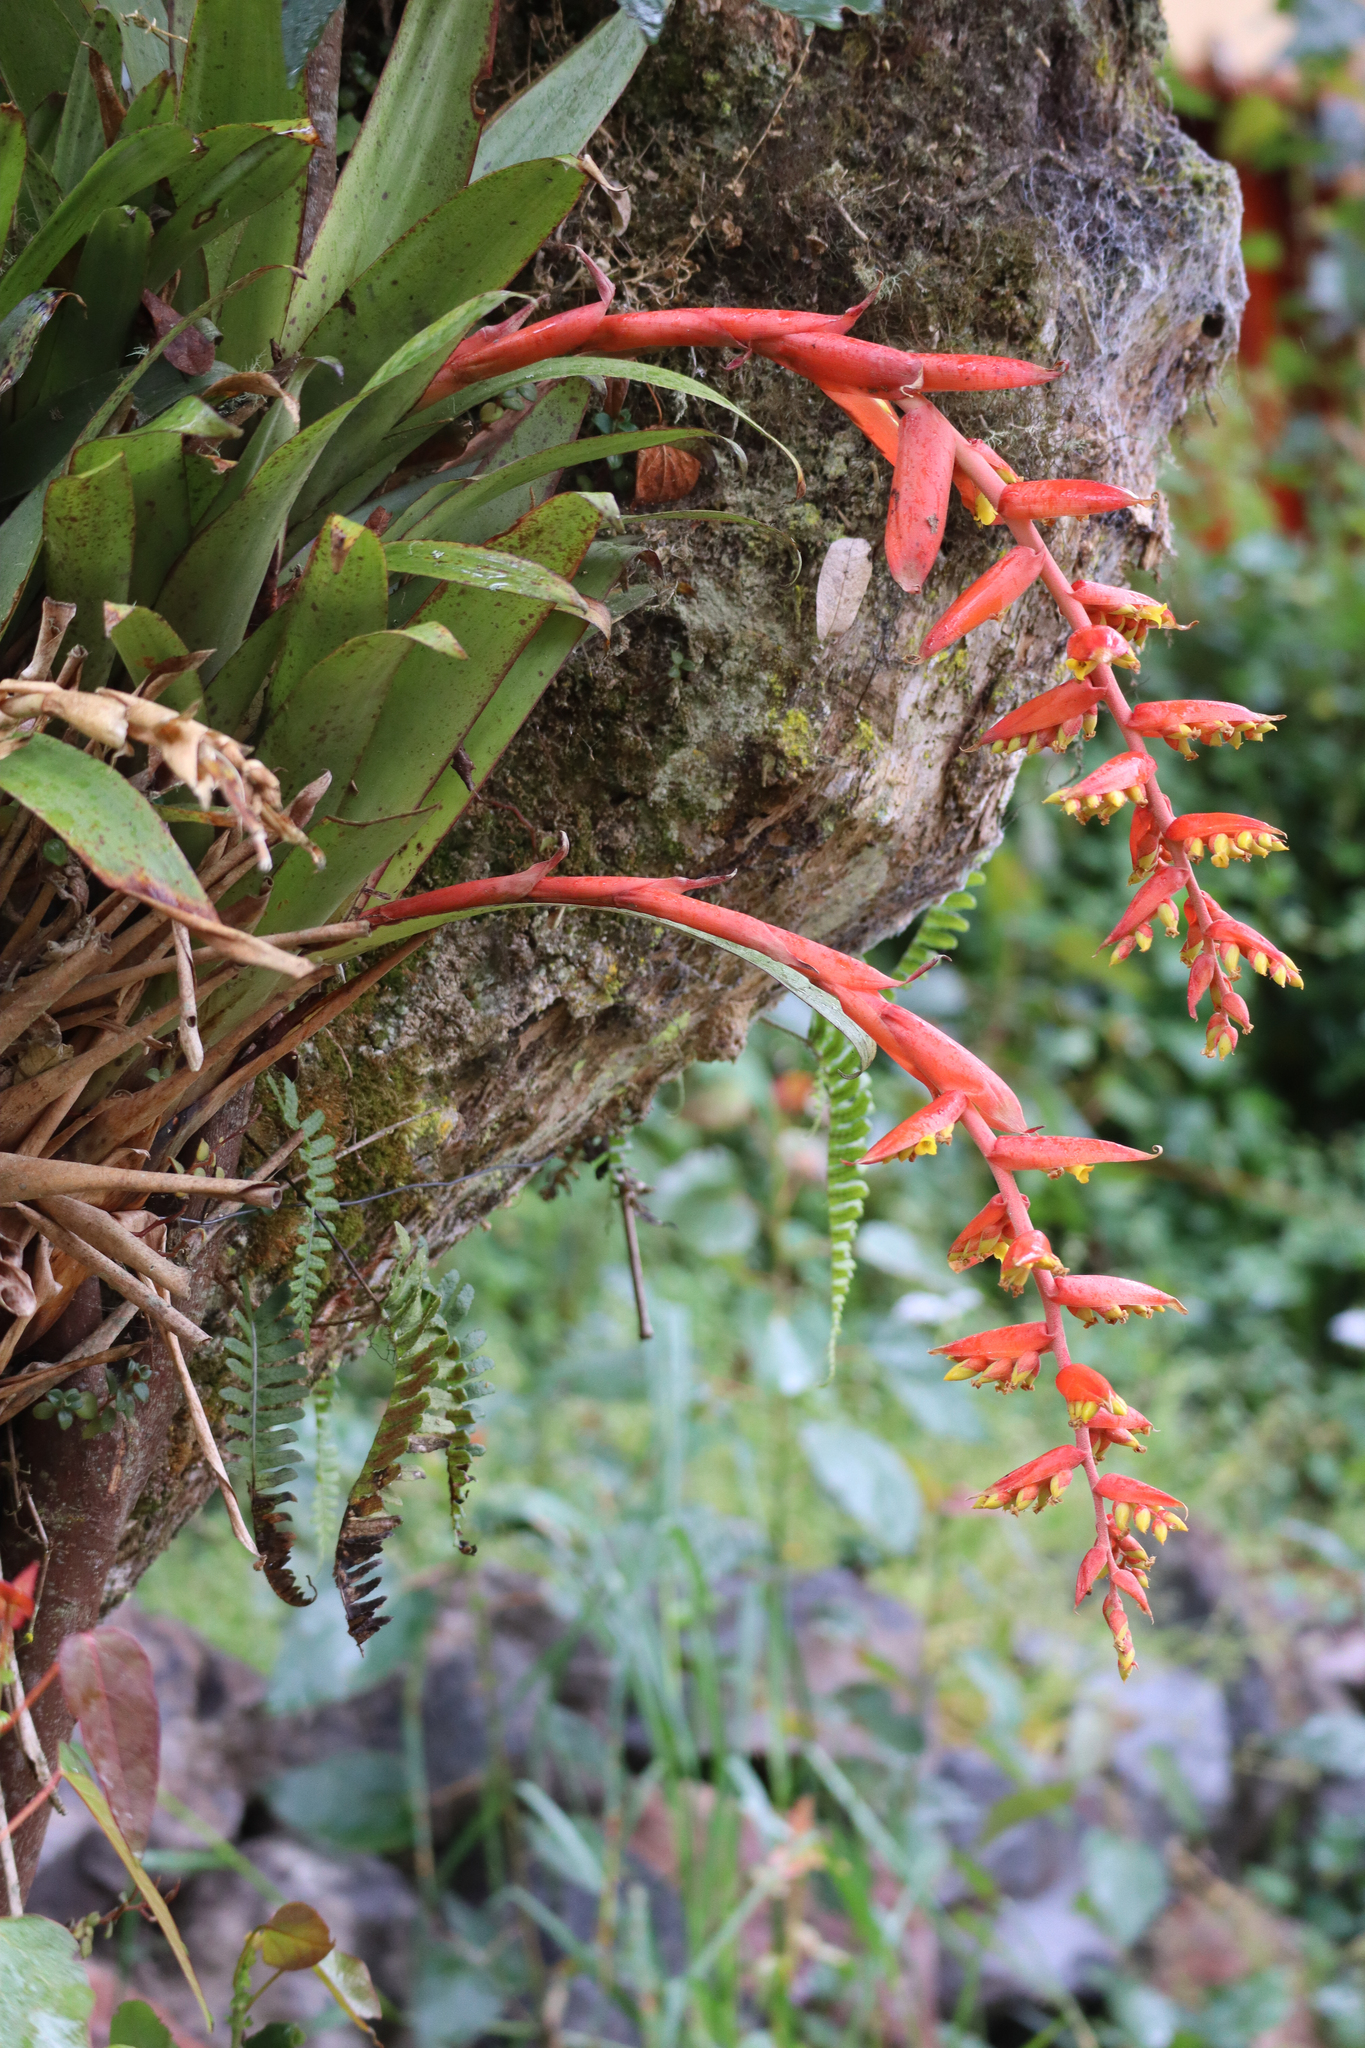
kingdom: Plantae
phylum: Tracheophyta
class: Liliopsida
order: Poales
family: Bromeliaceae
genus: Racinaea
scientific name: Racinaea tetrantha
